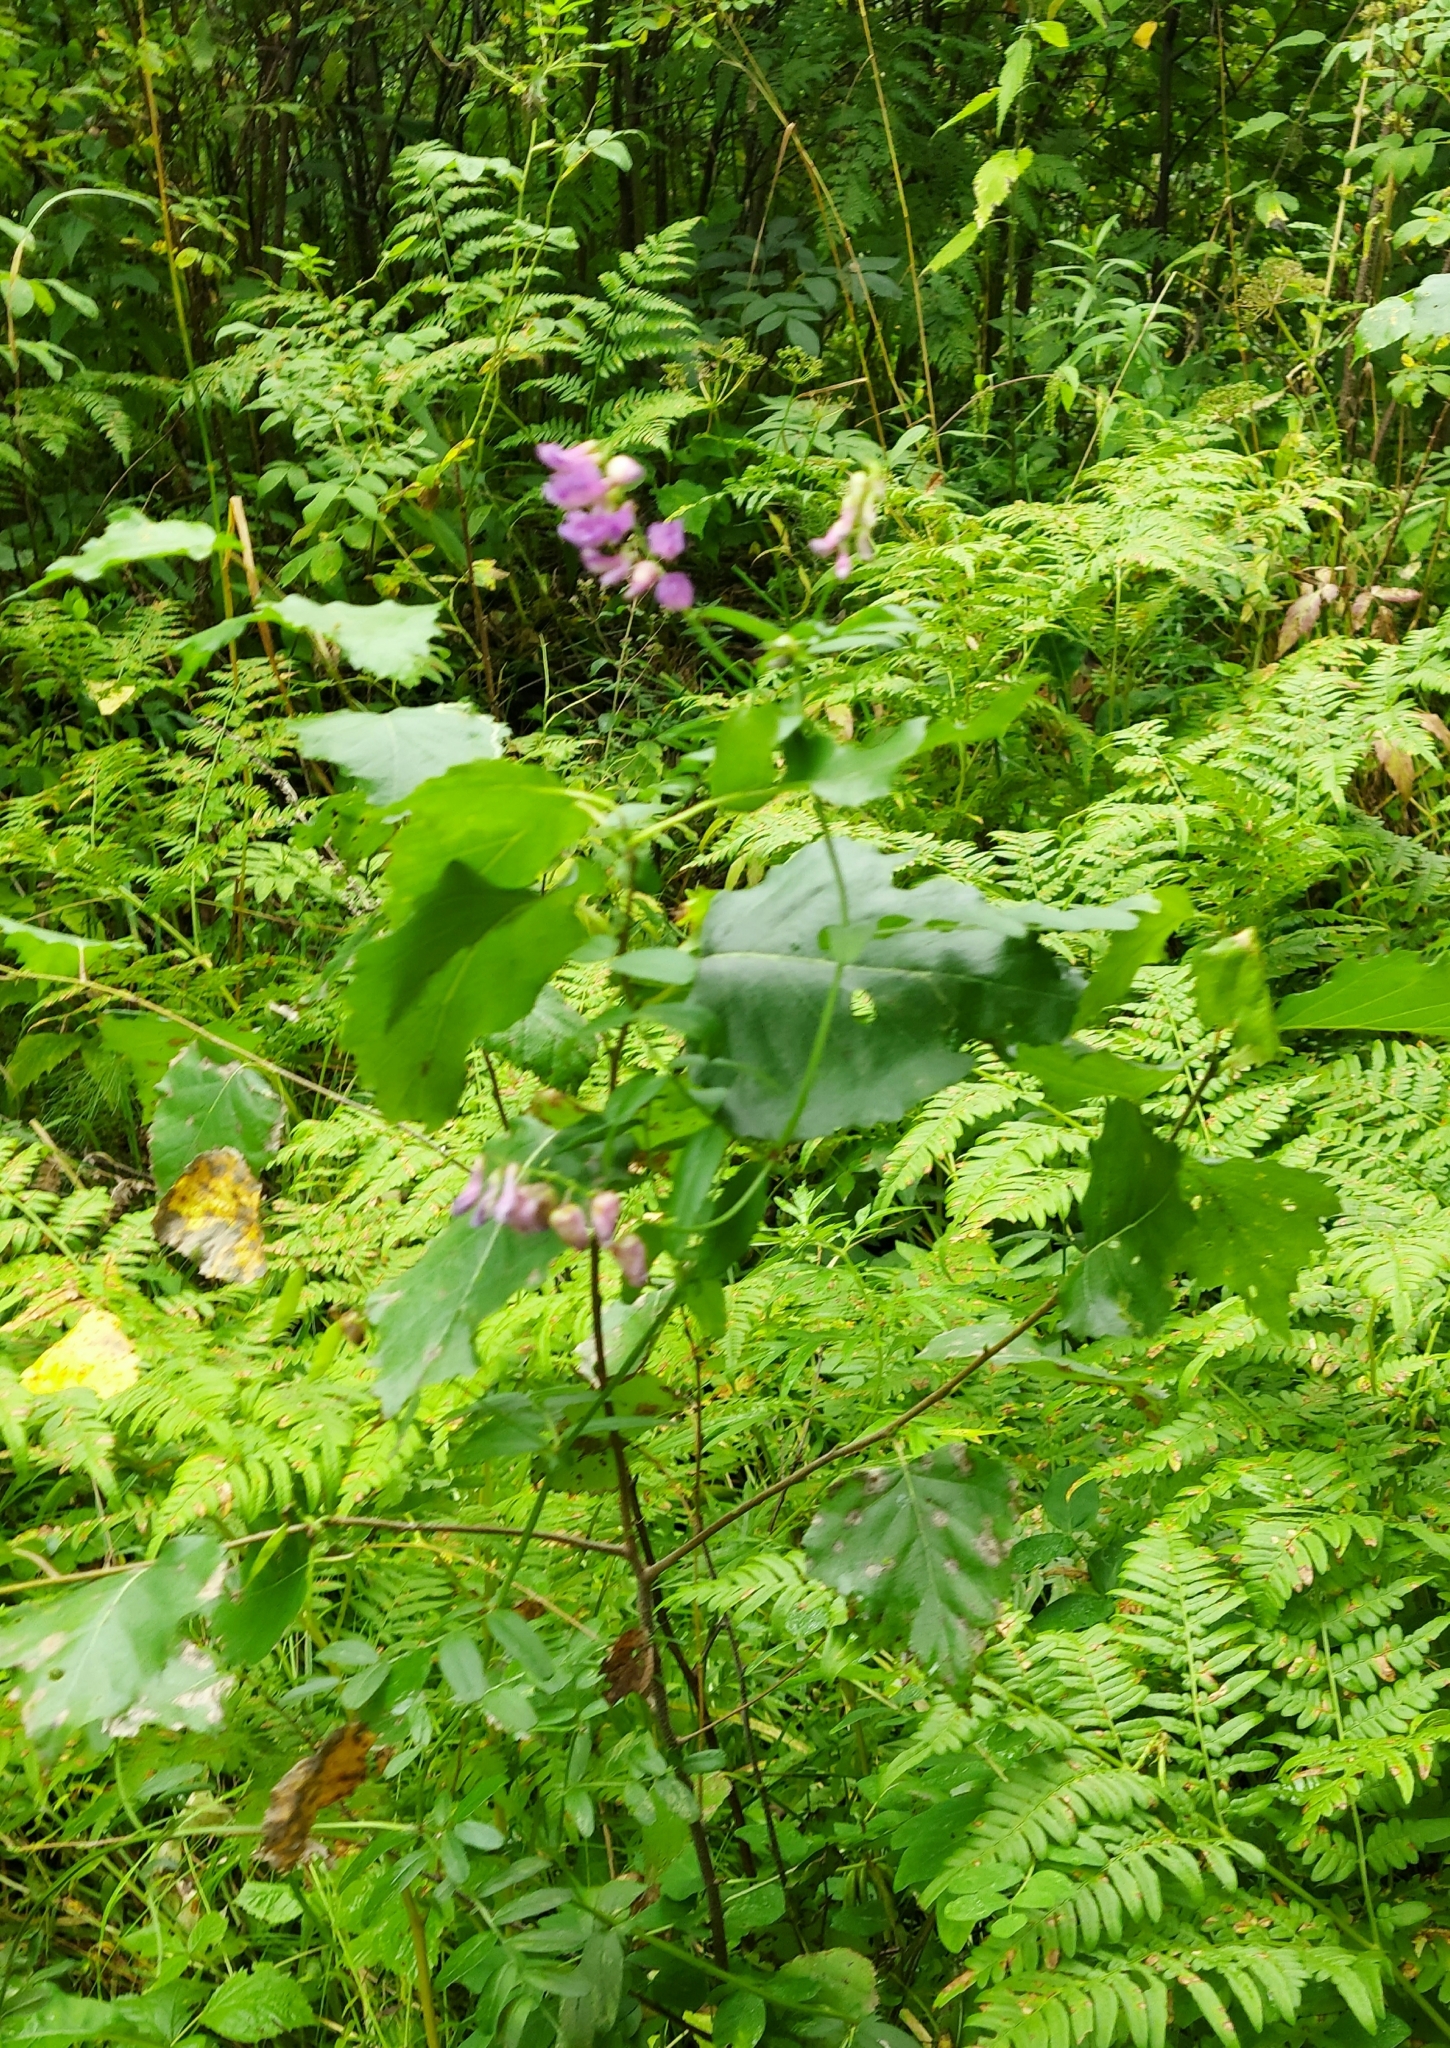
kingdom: Plantae
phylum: Tracheophyta
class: Magnoliopsida
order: Fabales
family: Fabaceae
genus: Vicia
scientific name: Vicia amoena
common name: Cheder ebs
